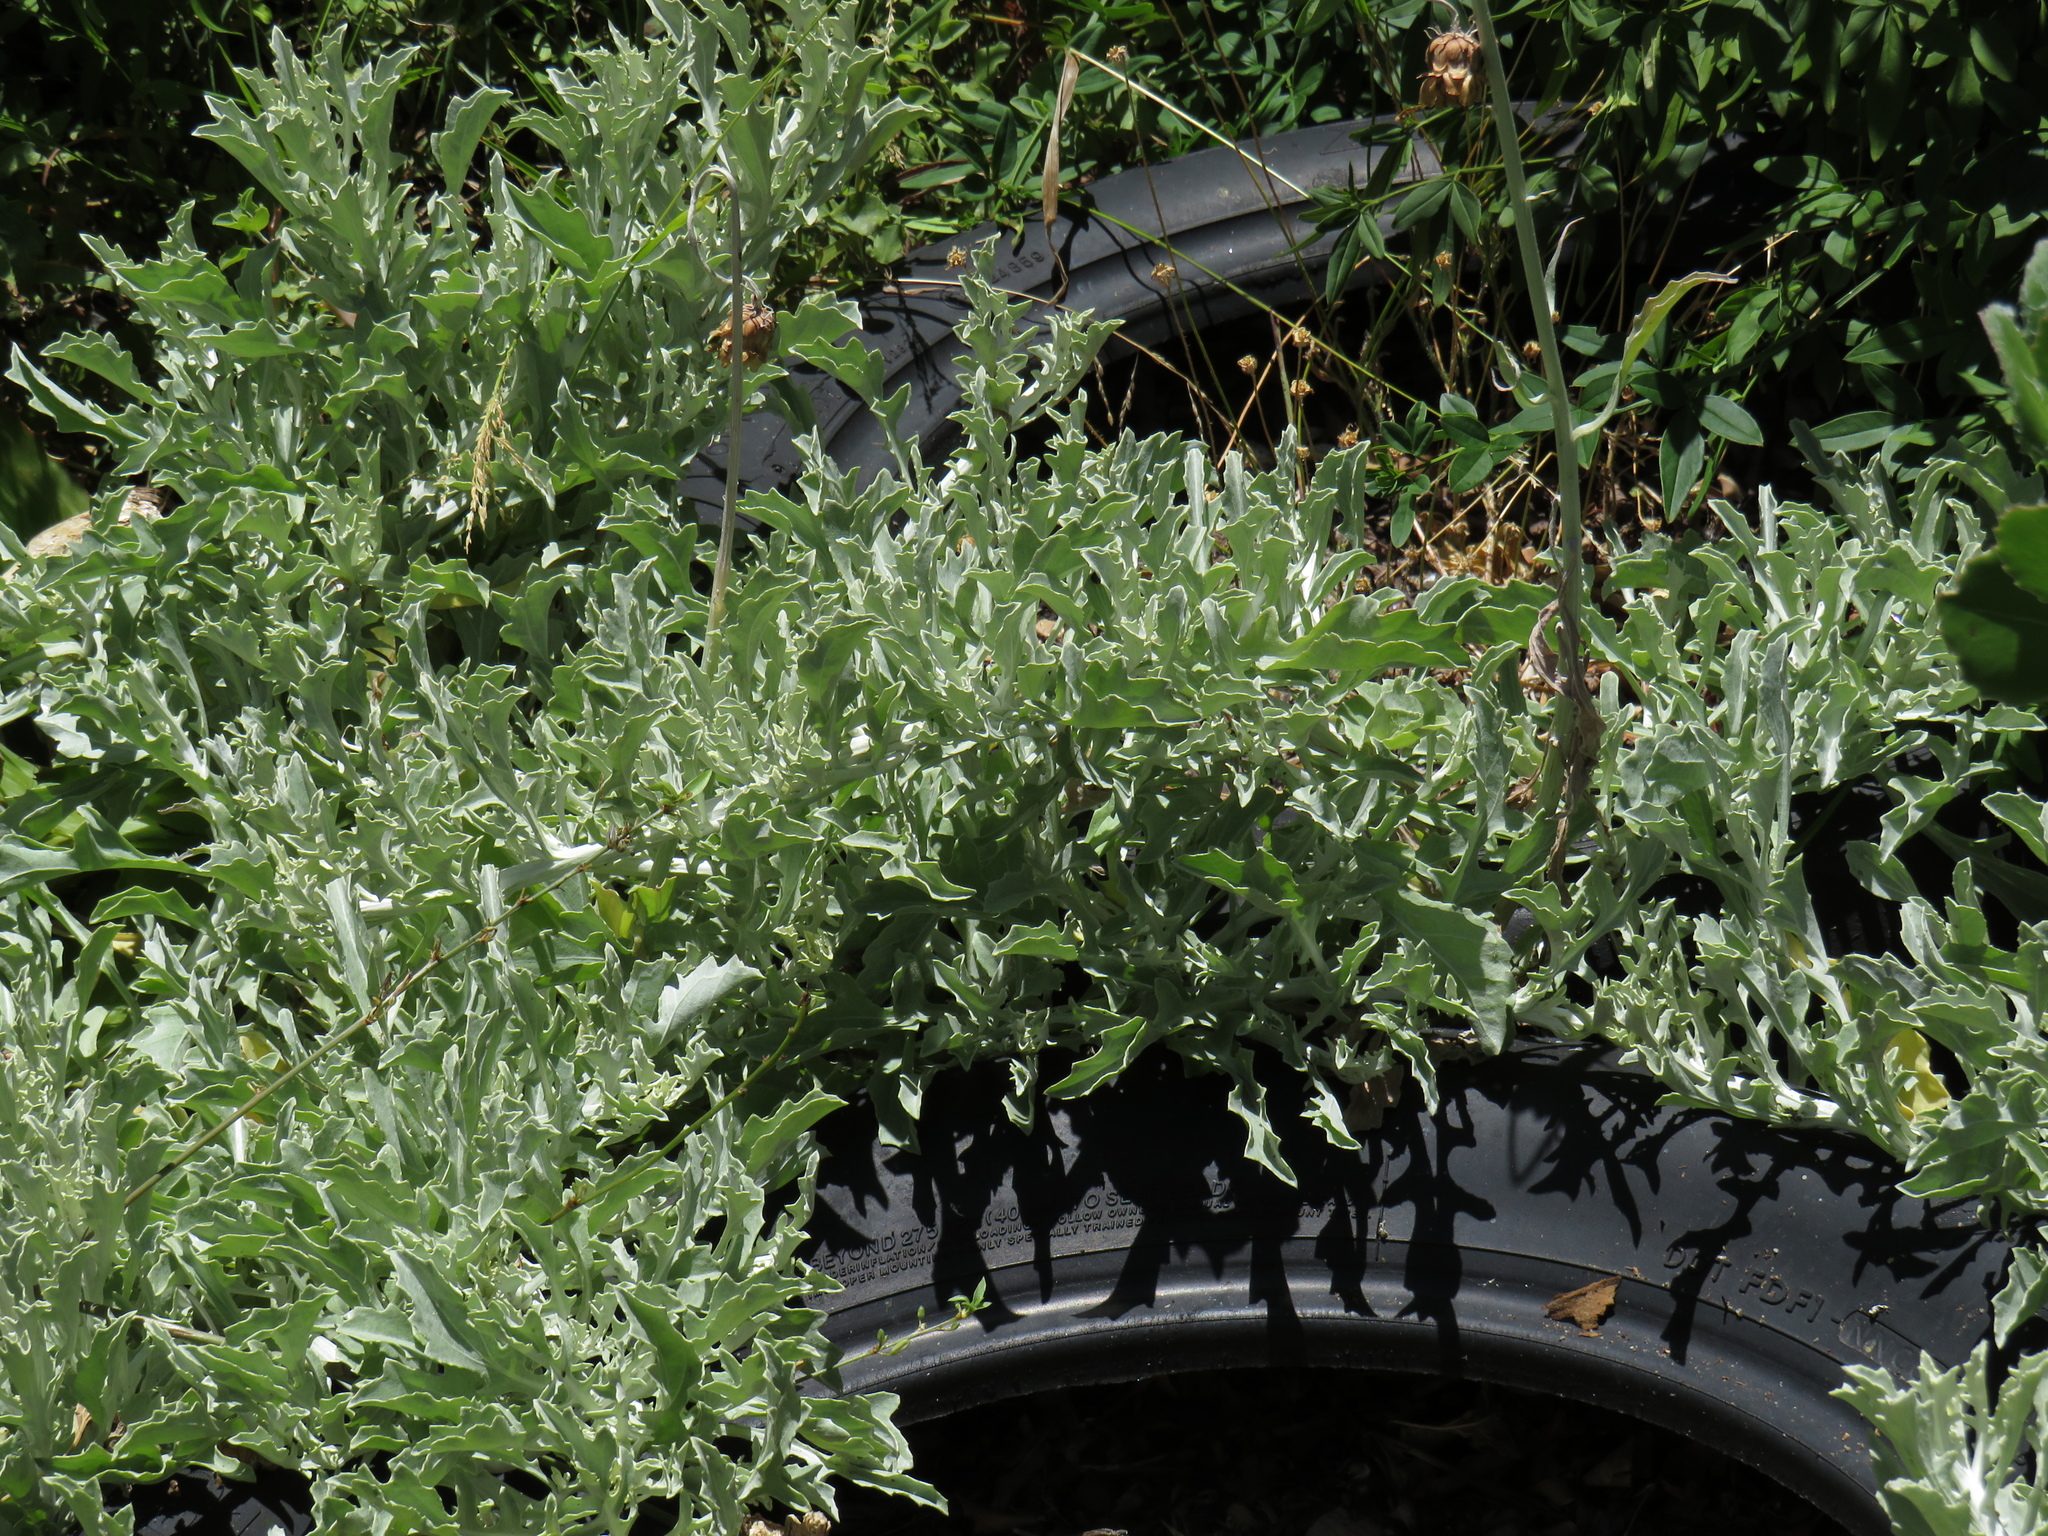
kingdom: Plantae
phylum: Tracheophyta
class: Magnoliopsida
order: Asterales
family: Asteraceae
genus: Arctotis
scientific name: Arctotis stoechadifolia
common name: African daisy
